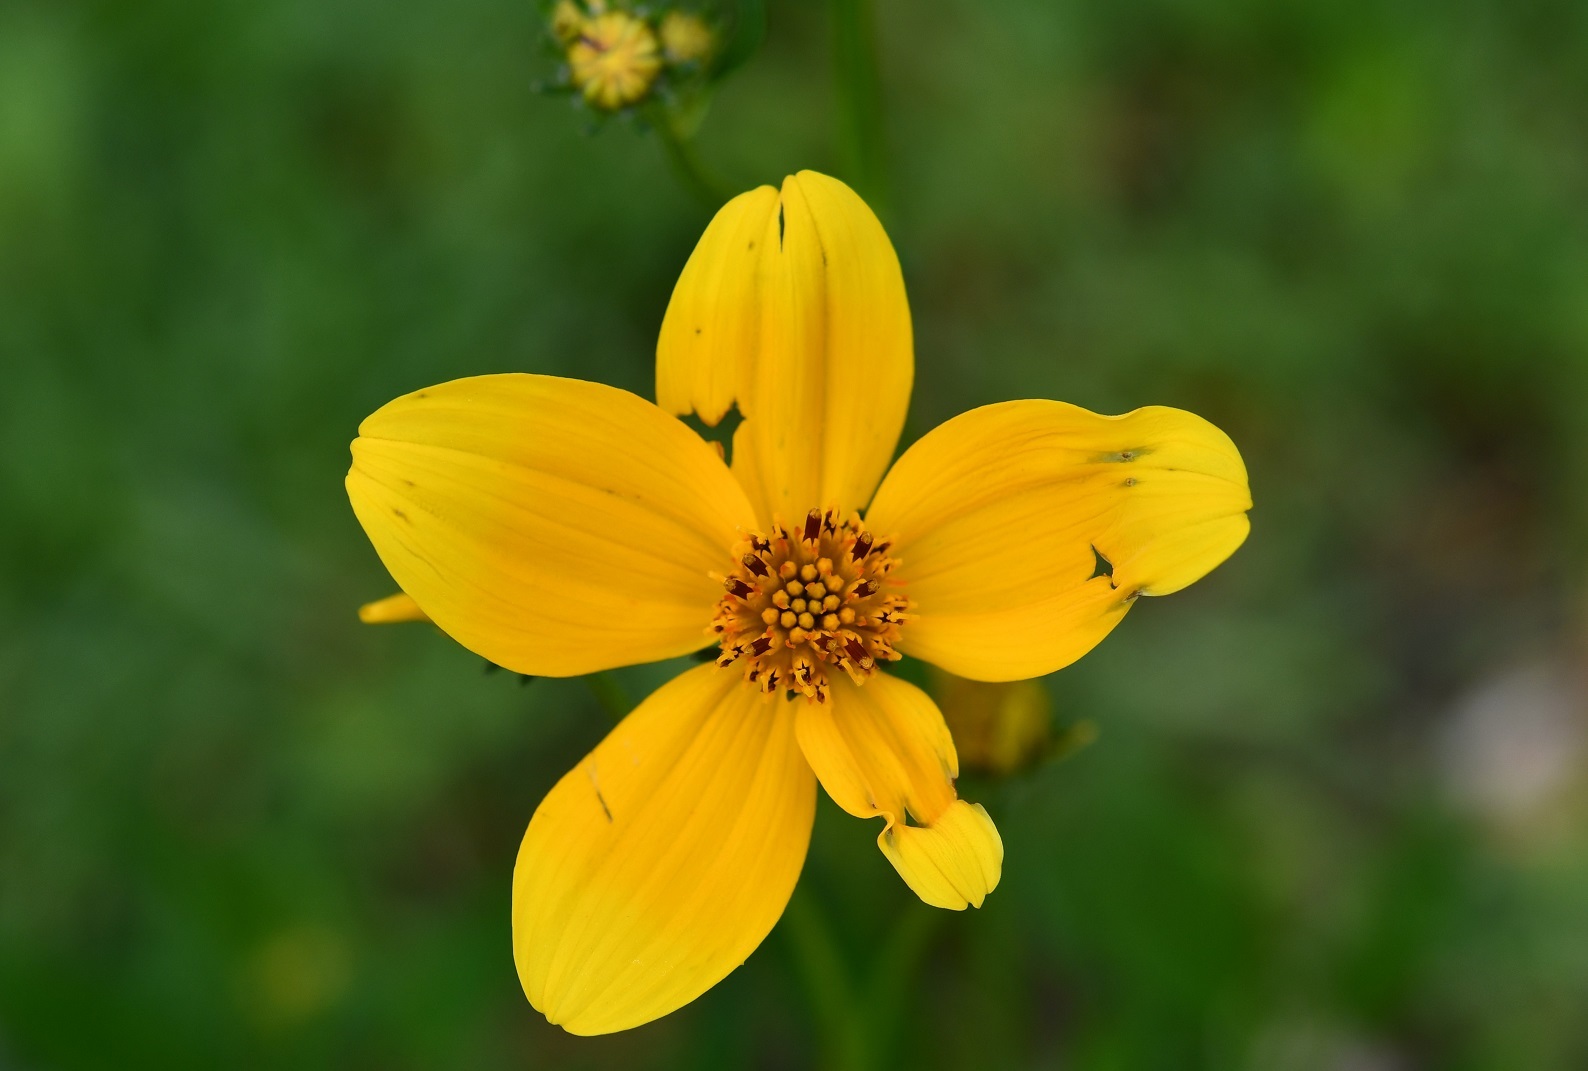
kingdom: Plantae
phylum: Tracheophyta
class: Magnoliopsida
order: Asterales
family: Asteraceae
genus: Bidens
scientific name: Bidens aurea
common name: Arizona beggar-ticks
